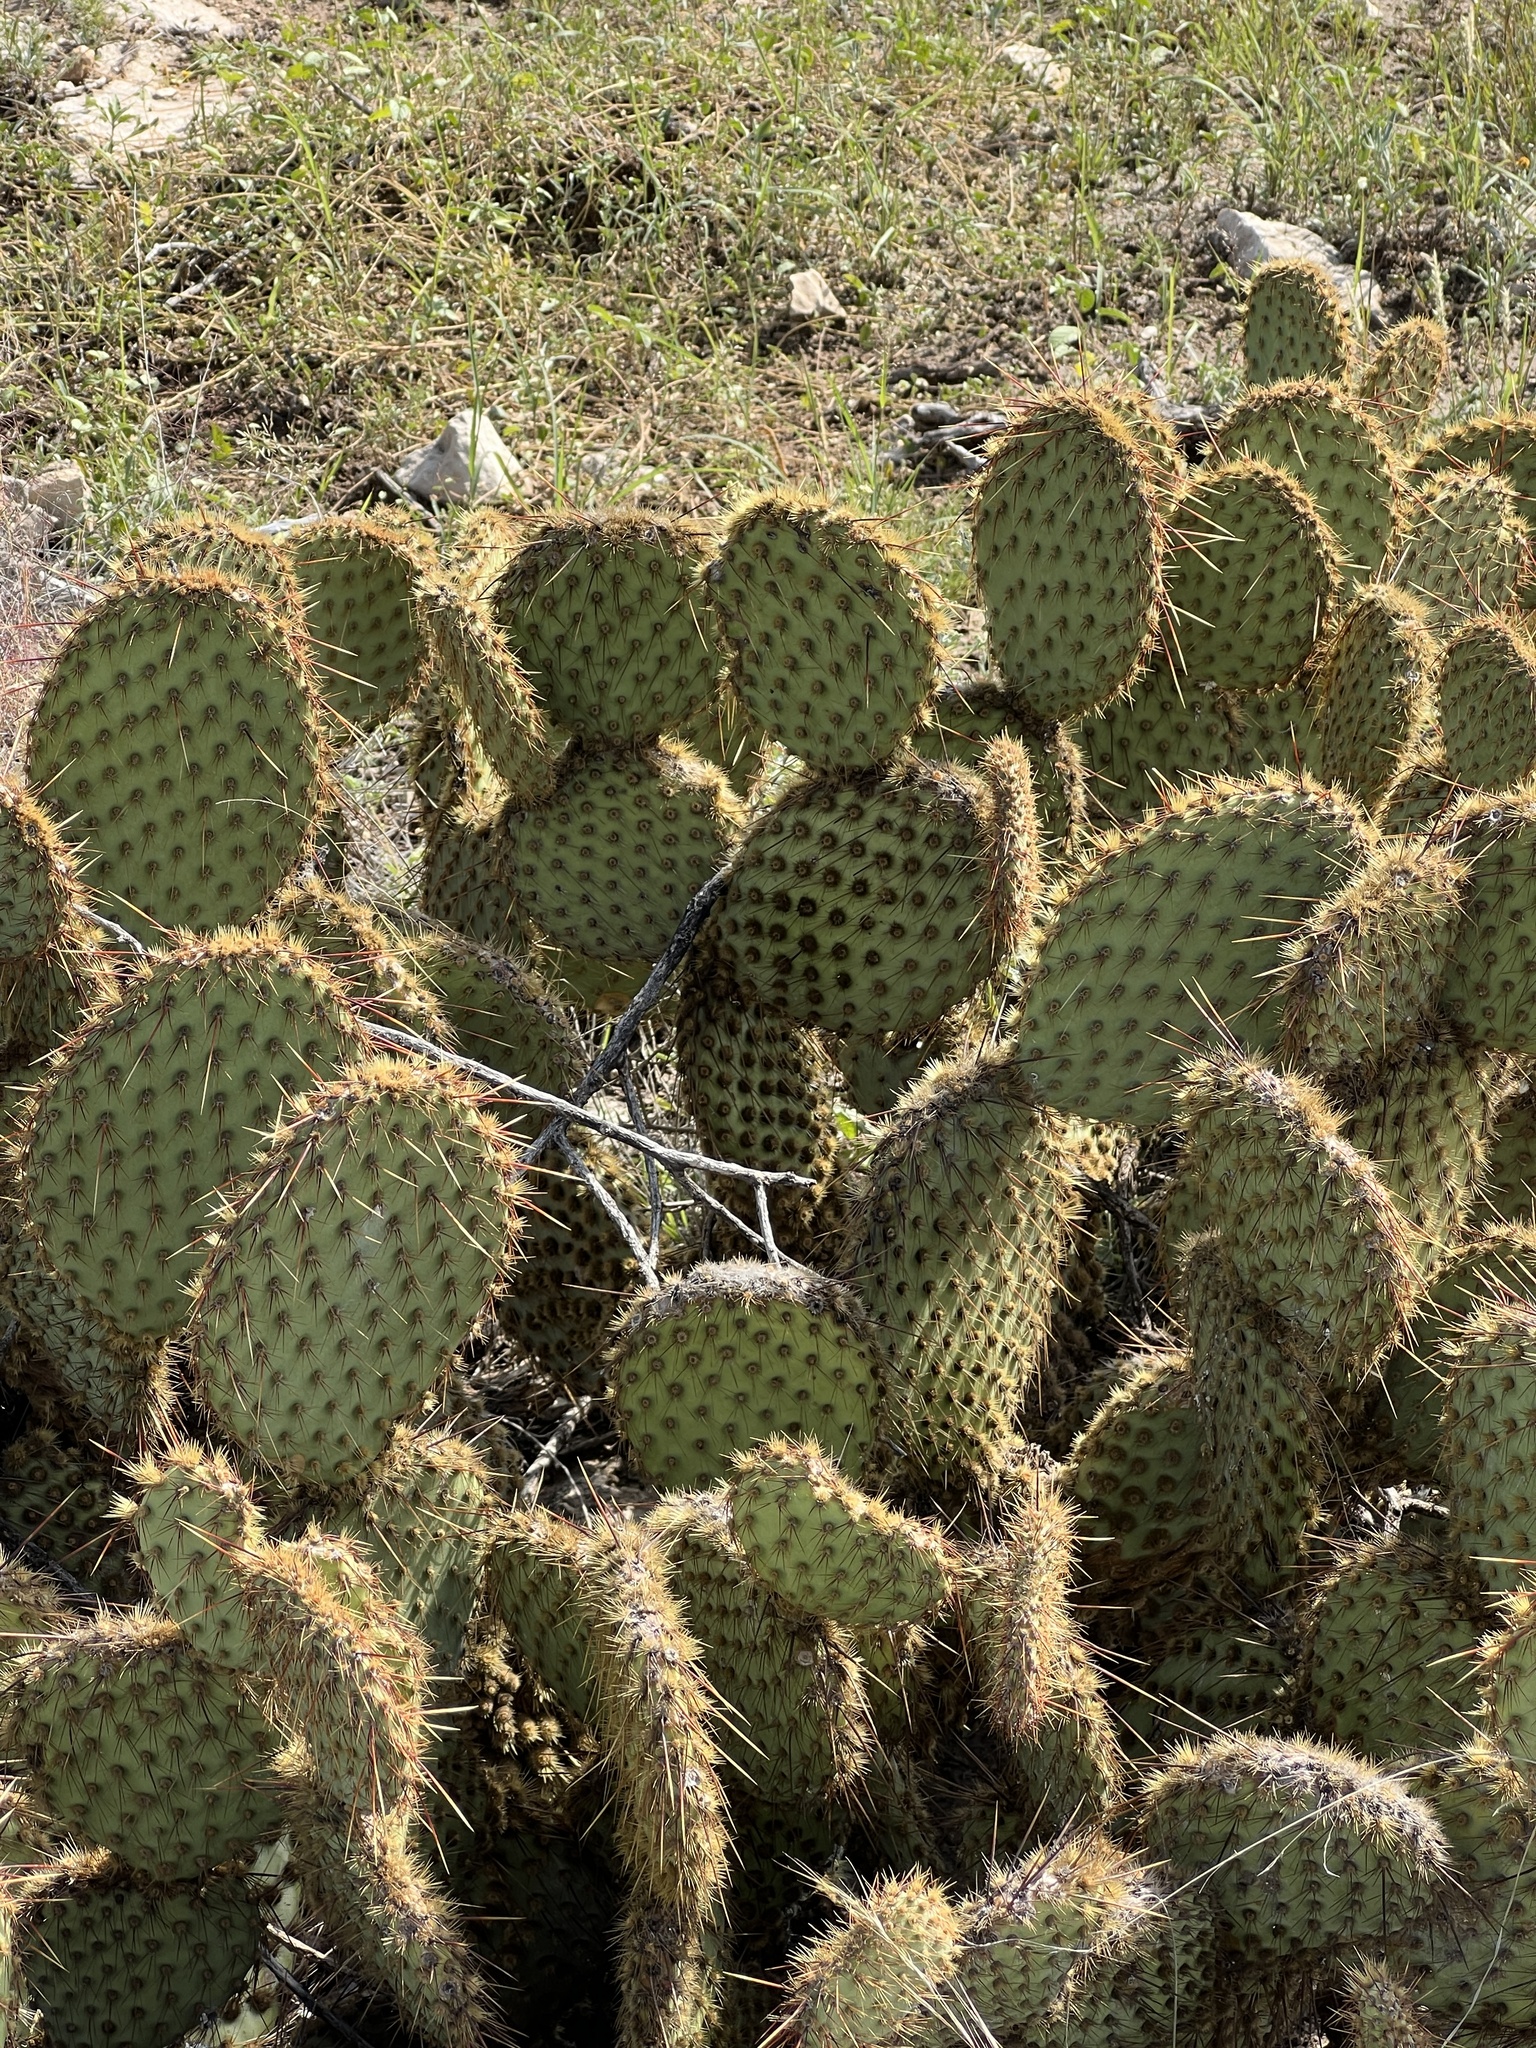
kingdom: Plantae
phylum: Tracheophyta
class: Magnoliopsida
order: Caryophyllales
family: Cactaceae
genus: Opuntia
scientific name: Opuntia strigil
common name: Marble-fruit prickly-pear
